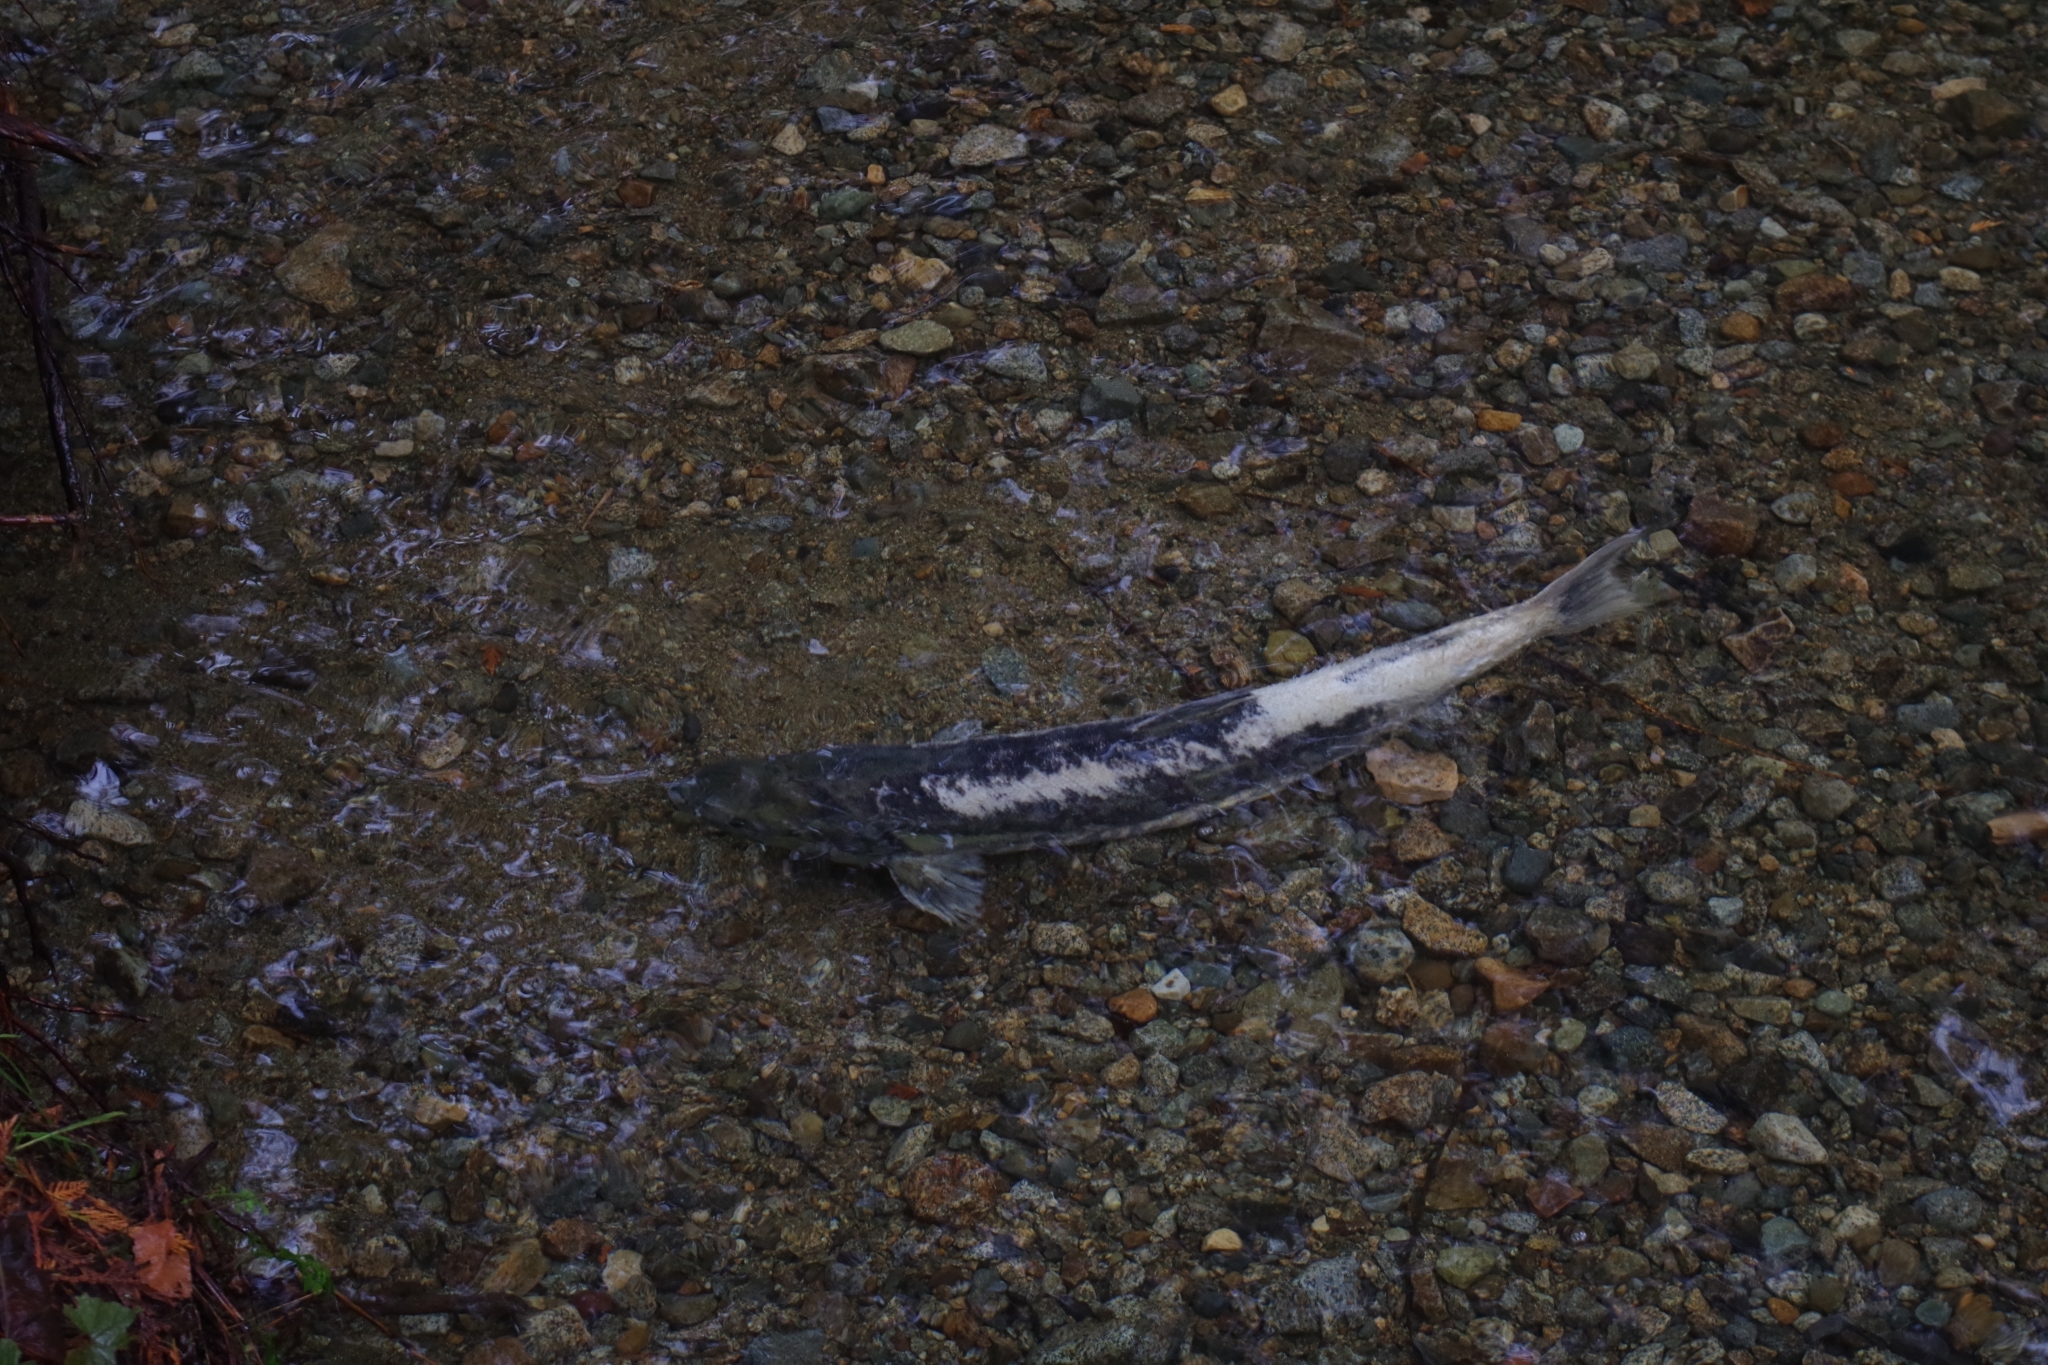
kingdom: Animalia
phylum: Chordata
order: Salmoniformes
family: Salmonidae
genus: Oncorhynchus
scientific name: Oncorhynchus keta
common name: Chum salmon
